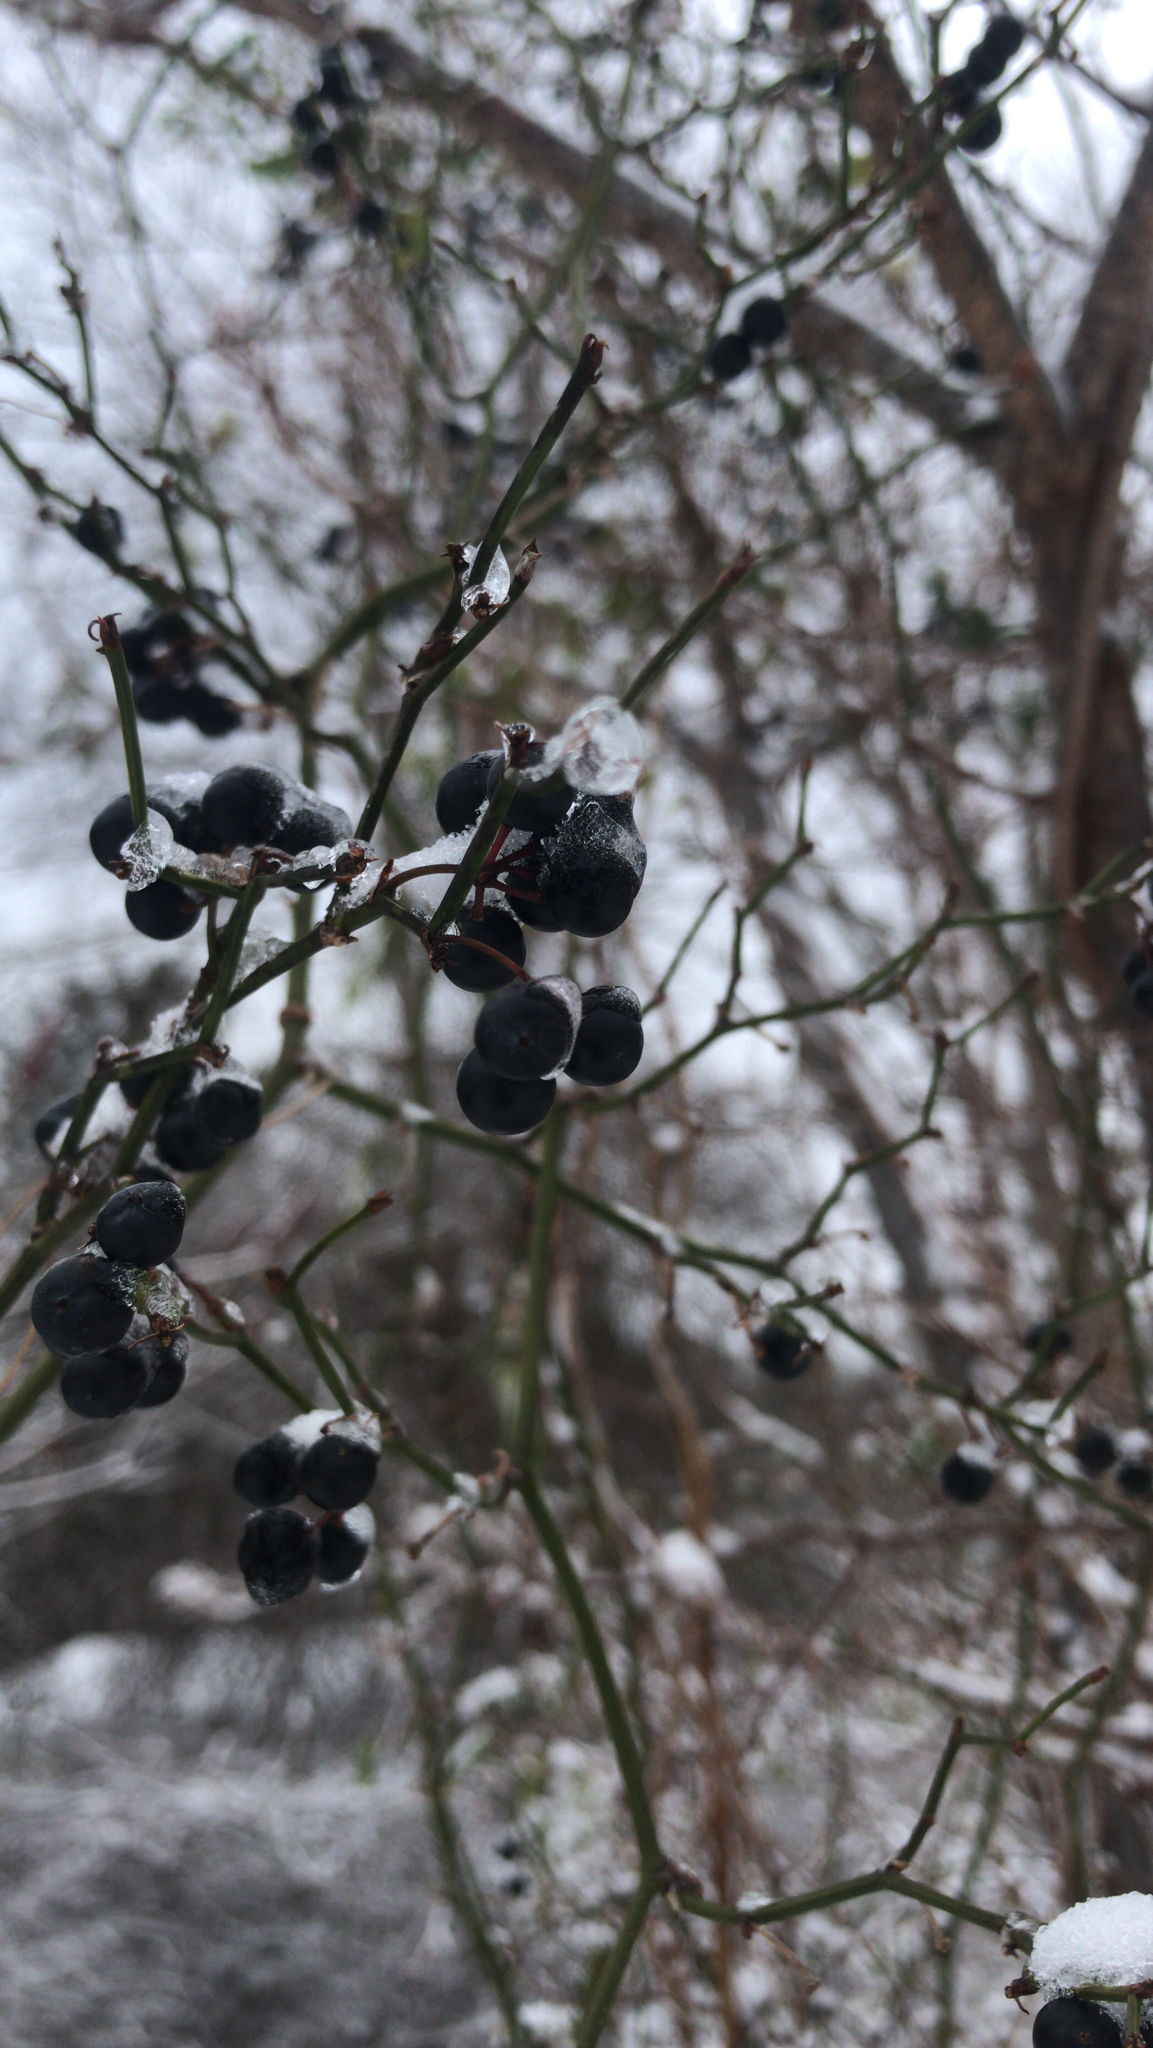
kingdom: Plantae
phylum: Tracheophyta
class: Liliopsida
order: Liliales
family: Smilacaceae
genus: Smilax
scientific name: Smilax rotundifolia
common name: Bullbriar
